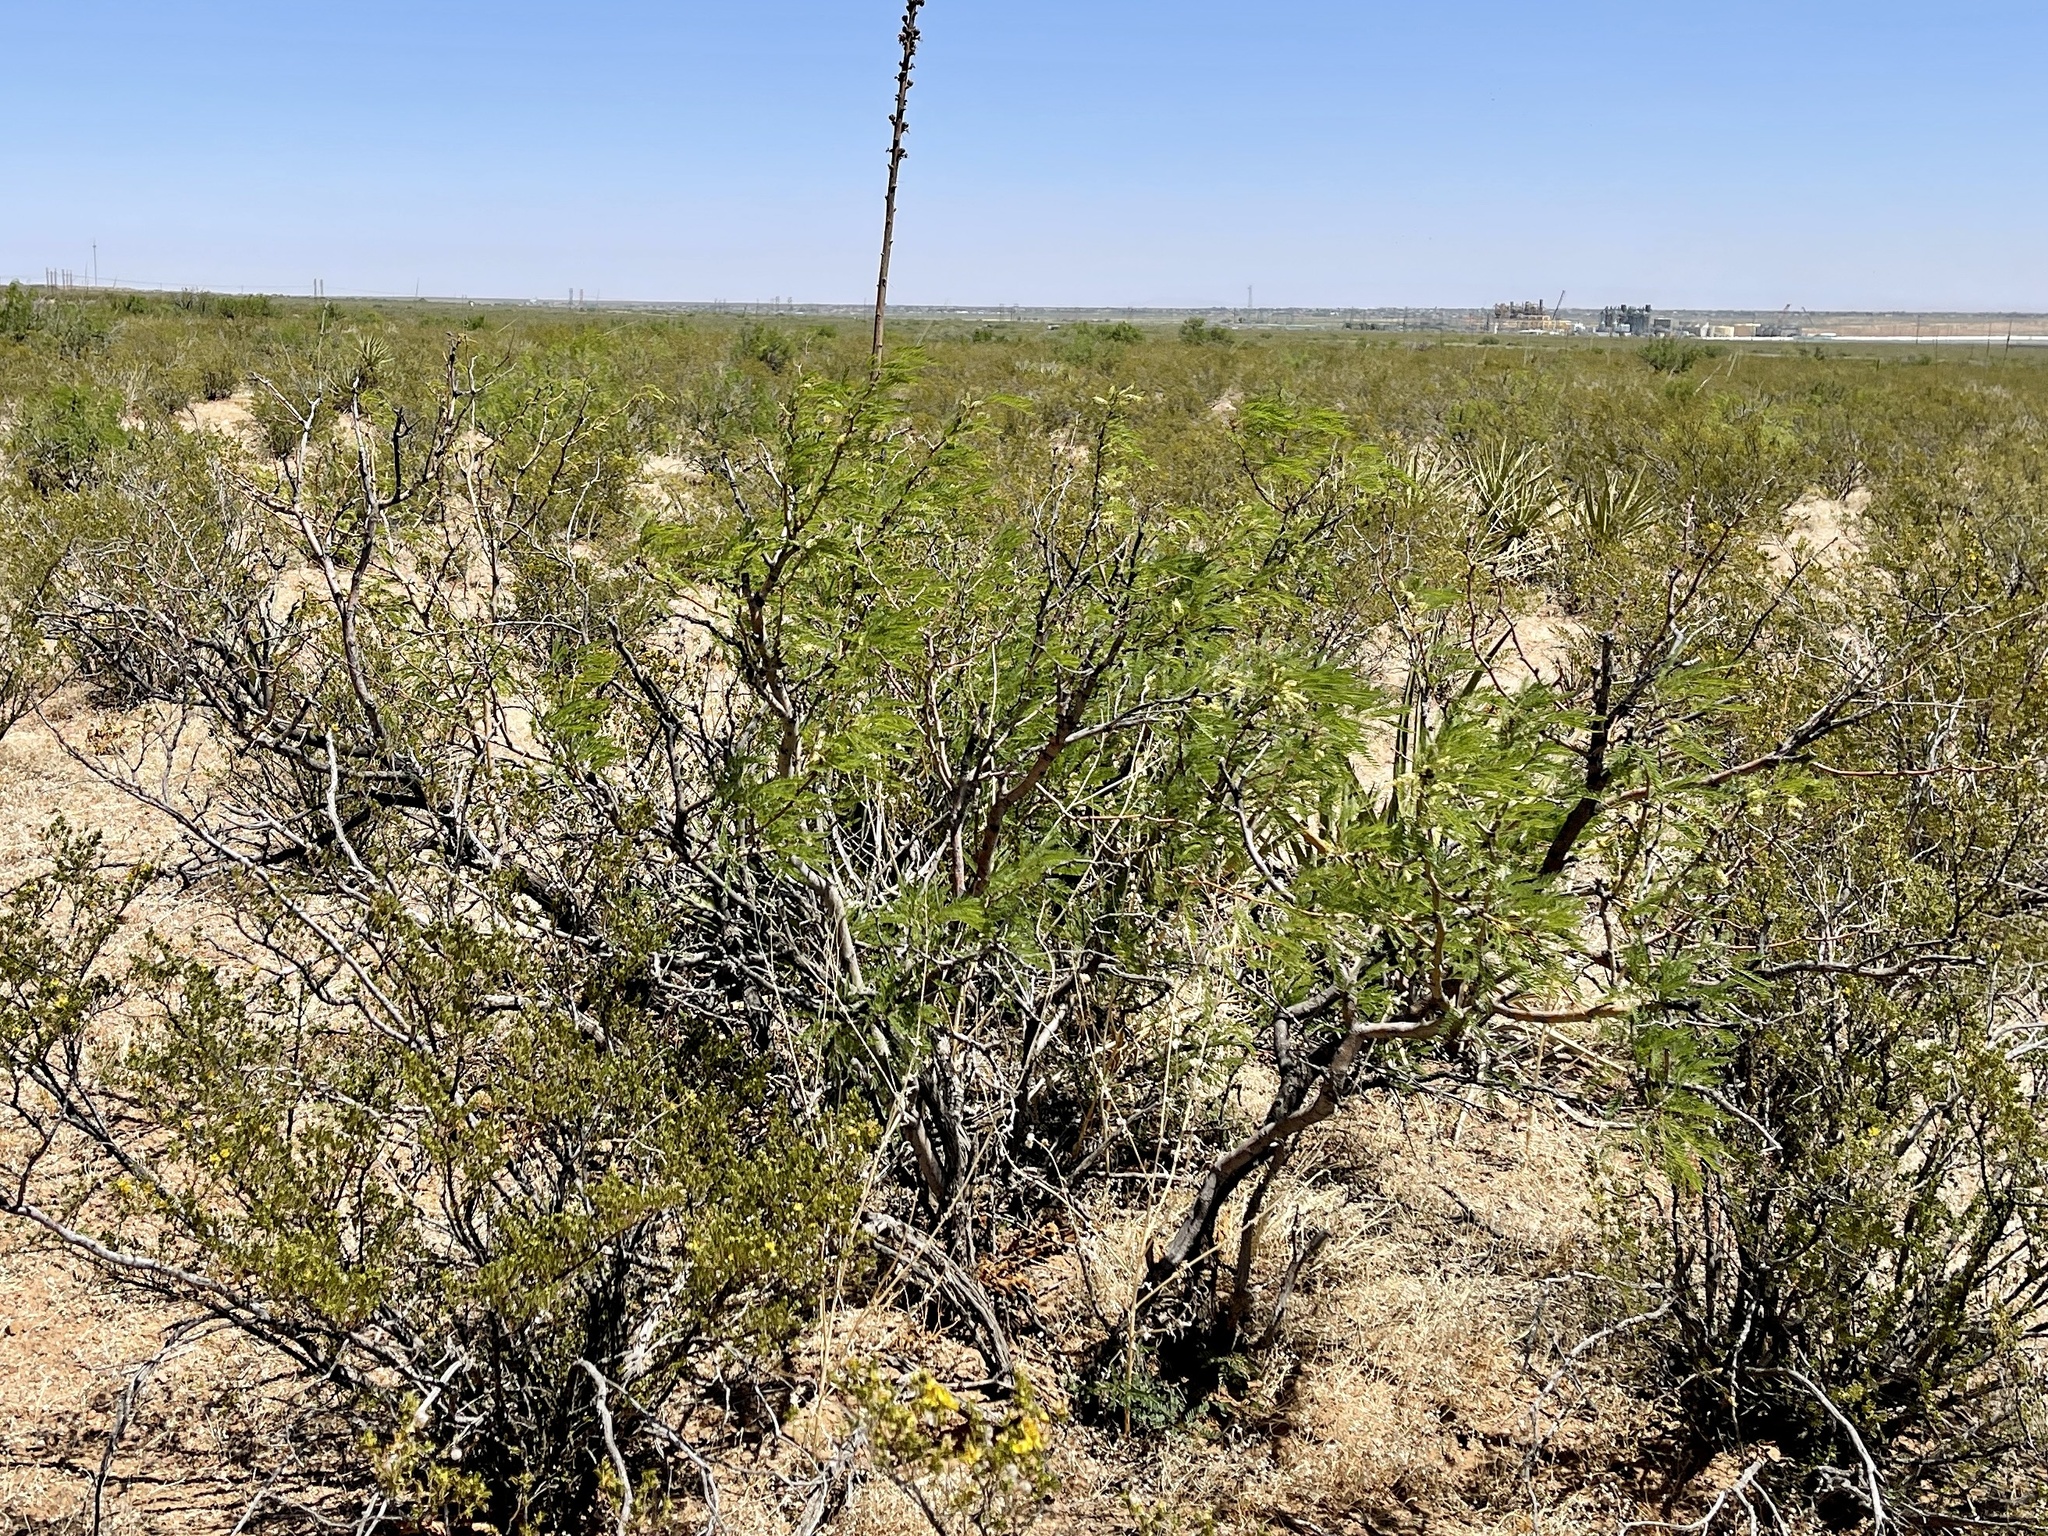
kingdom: Plantae
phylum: Tracheophyta
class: Magnoliopsida
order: Fabales
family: Fabaceae
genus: Prosopis
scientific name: Prosopis pubescens
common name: Screw-bean
